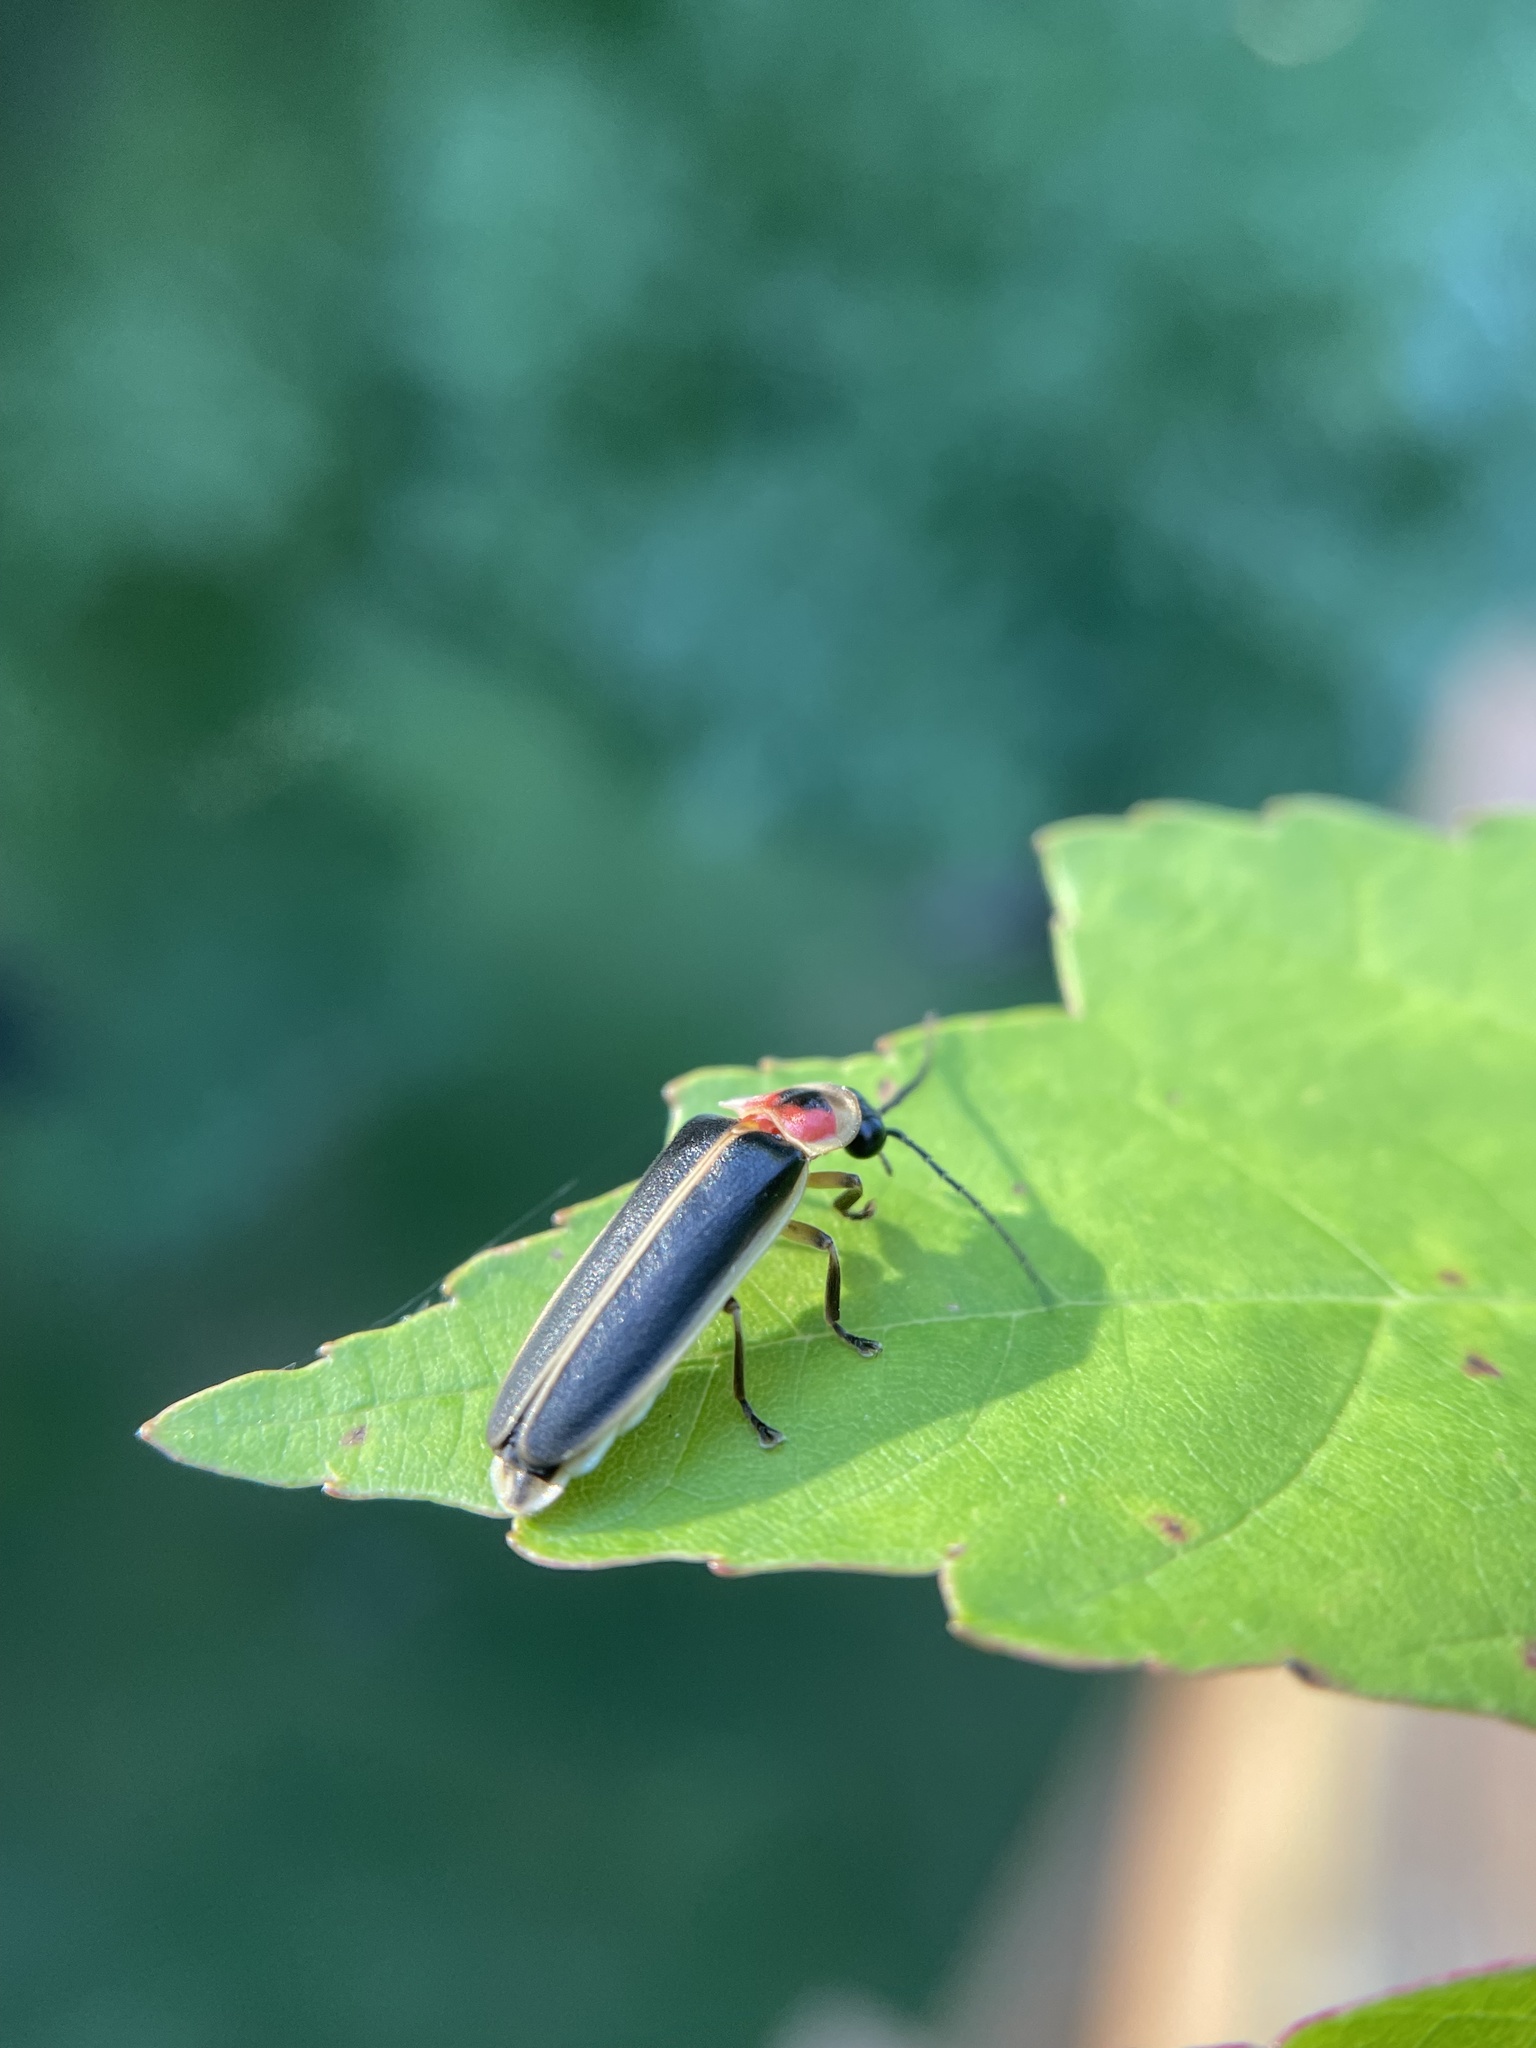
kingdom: Animalia
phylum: Arthropoda
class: Insecta
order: Coleoptera
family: Lampyridae
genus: Photinus
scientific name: Photinus pyralis
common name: Big dipper firefly
